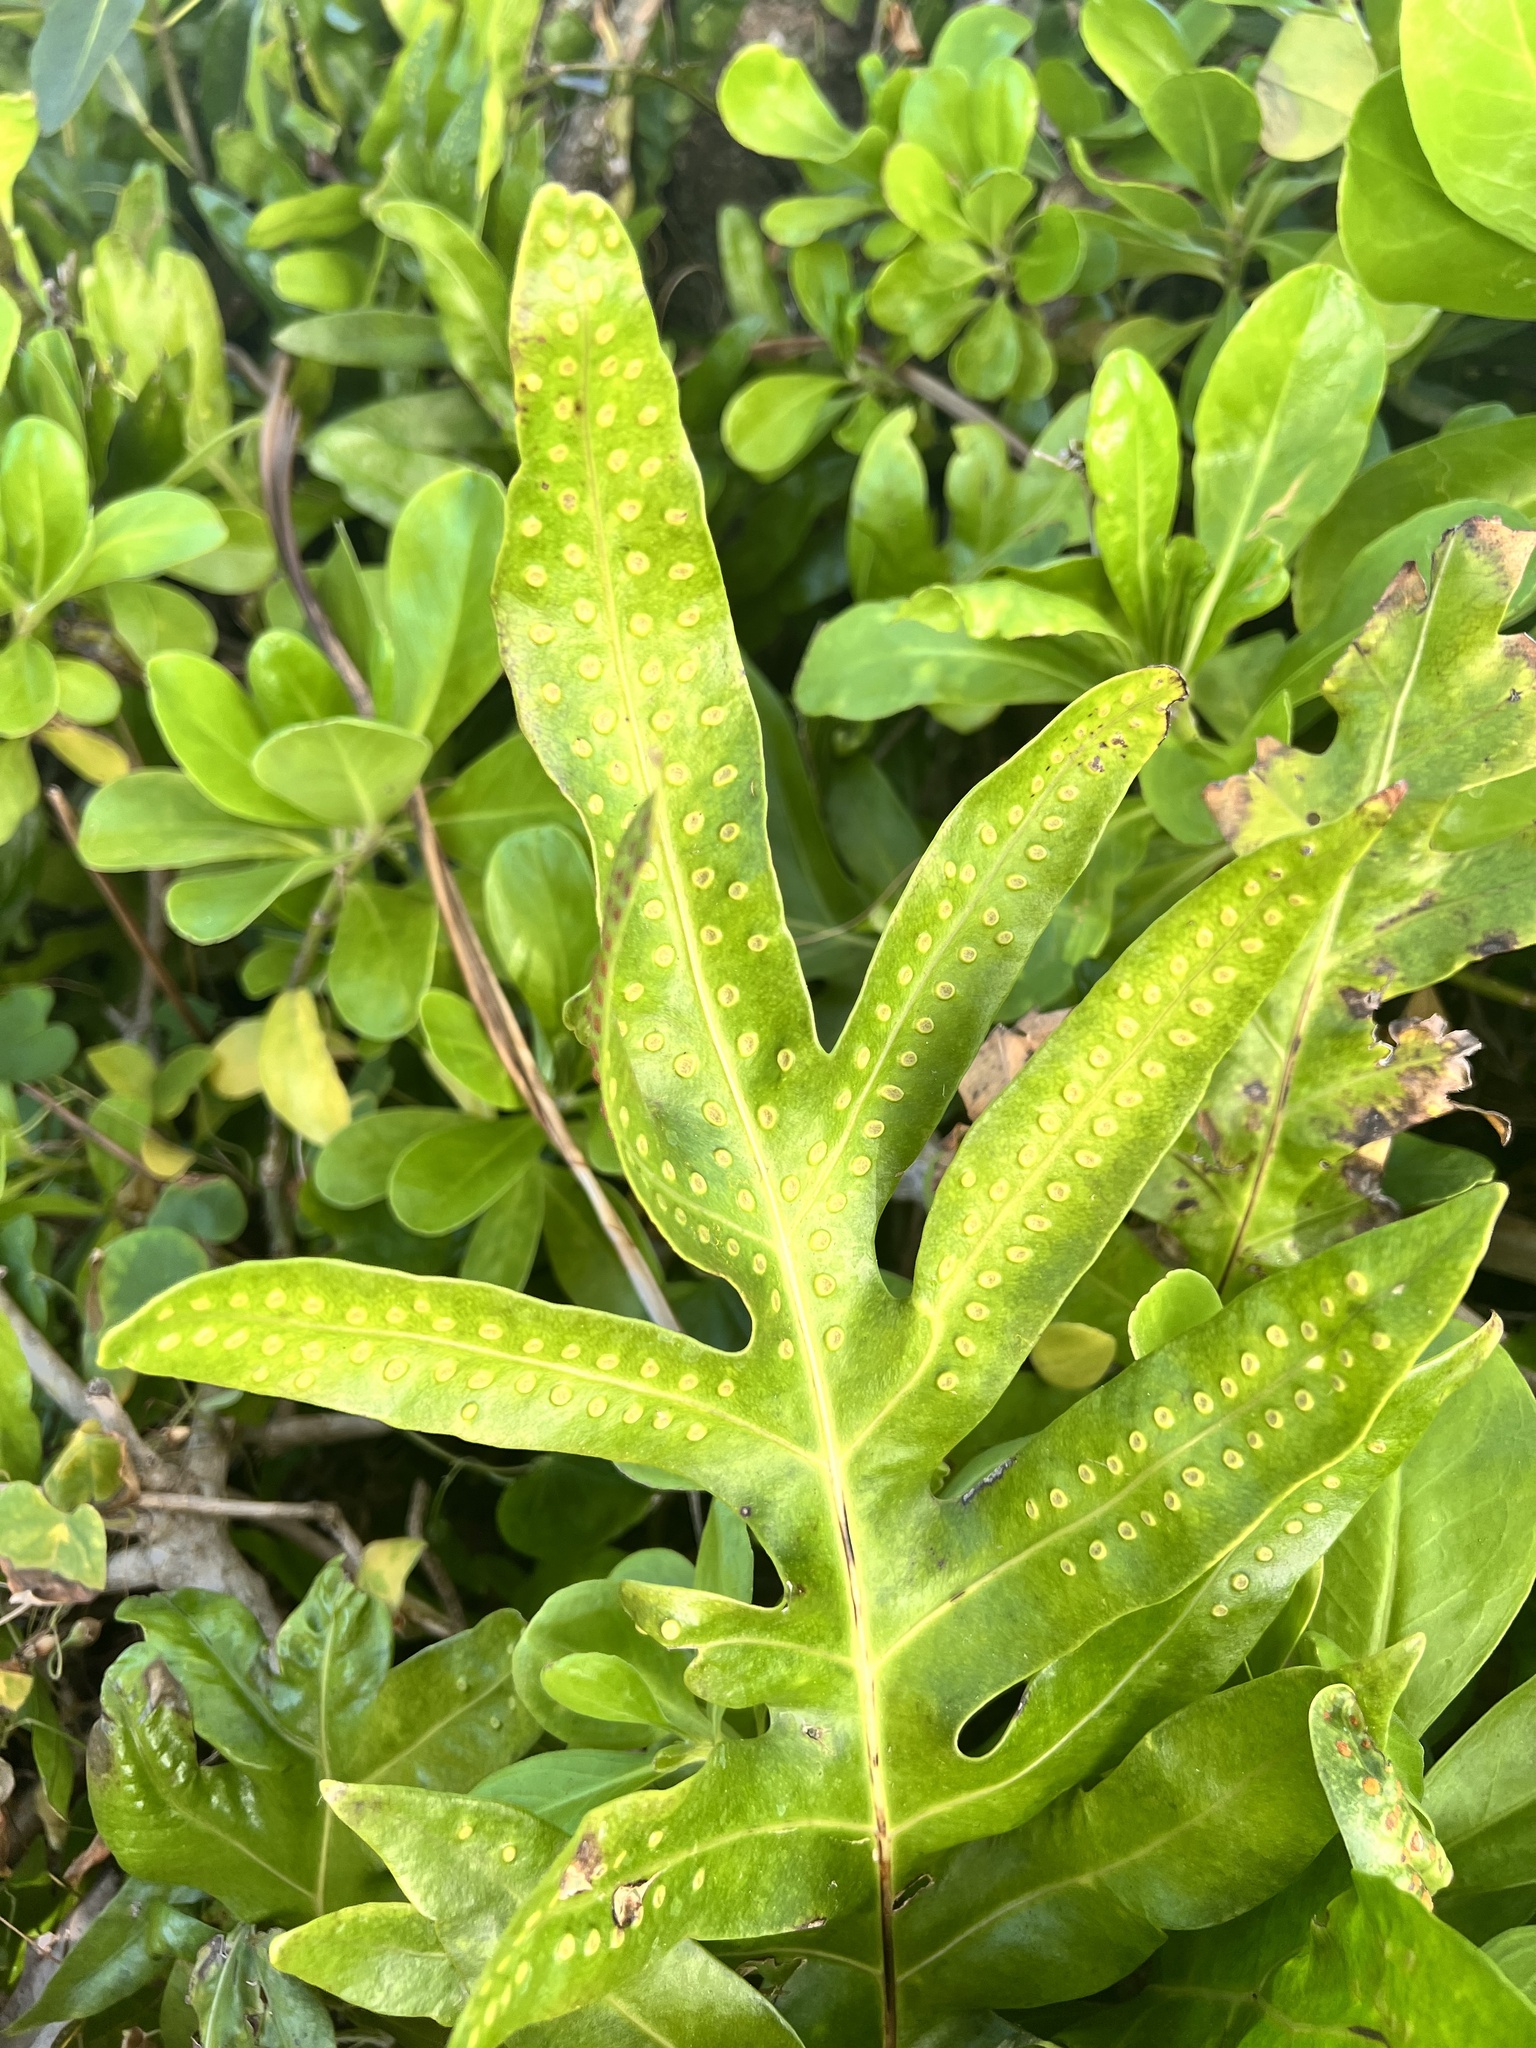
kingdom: Plantae
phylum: Tracheophyta
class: Polypodiopsida
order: Polypodiales
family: Polypodiaceae
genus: Microsorum
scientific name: Microsorum grossum
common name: Musk fern
